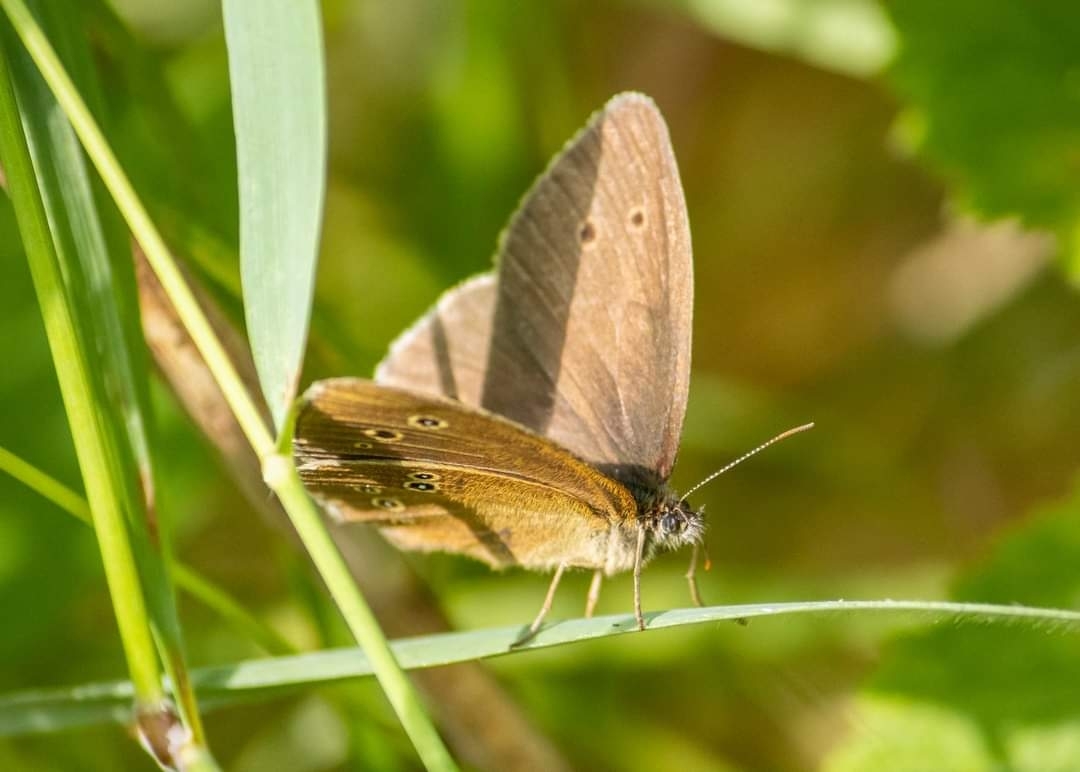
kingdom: Animalia
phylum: Arthropoda
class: Insecta
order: Lepidoptera
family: Nymphalidae
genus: Aphantopus
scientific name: Aphantopus hyperantus
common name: Ringlet
